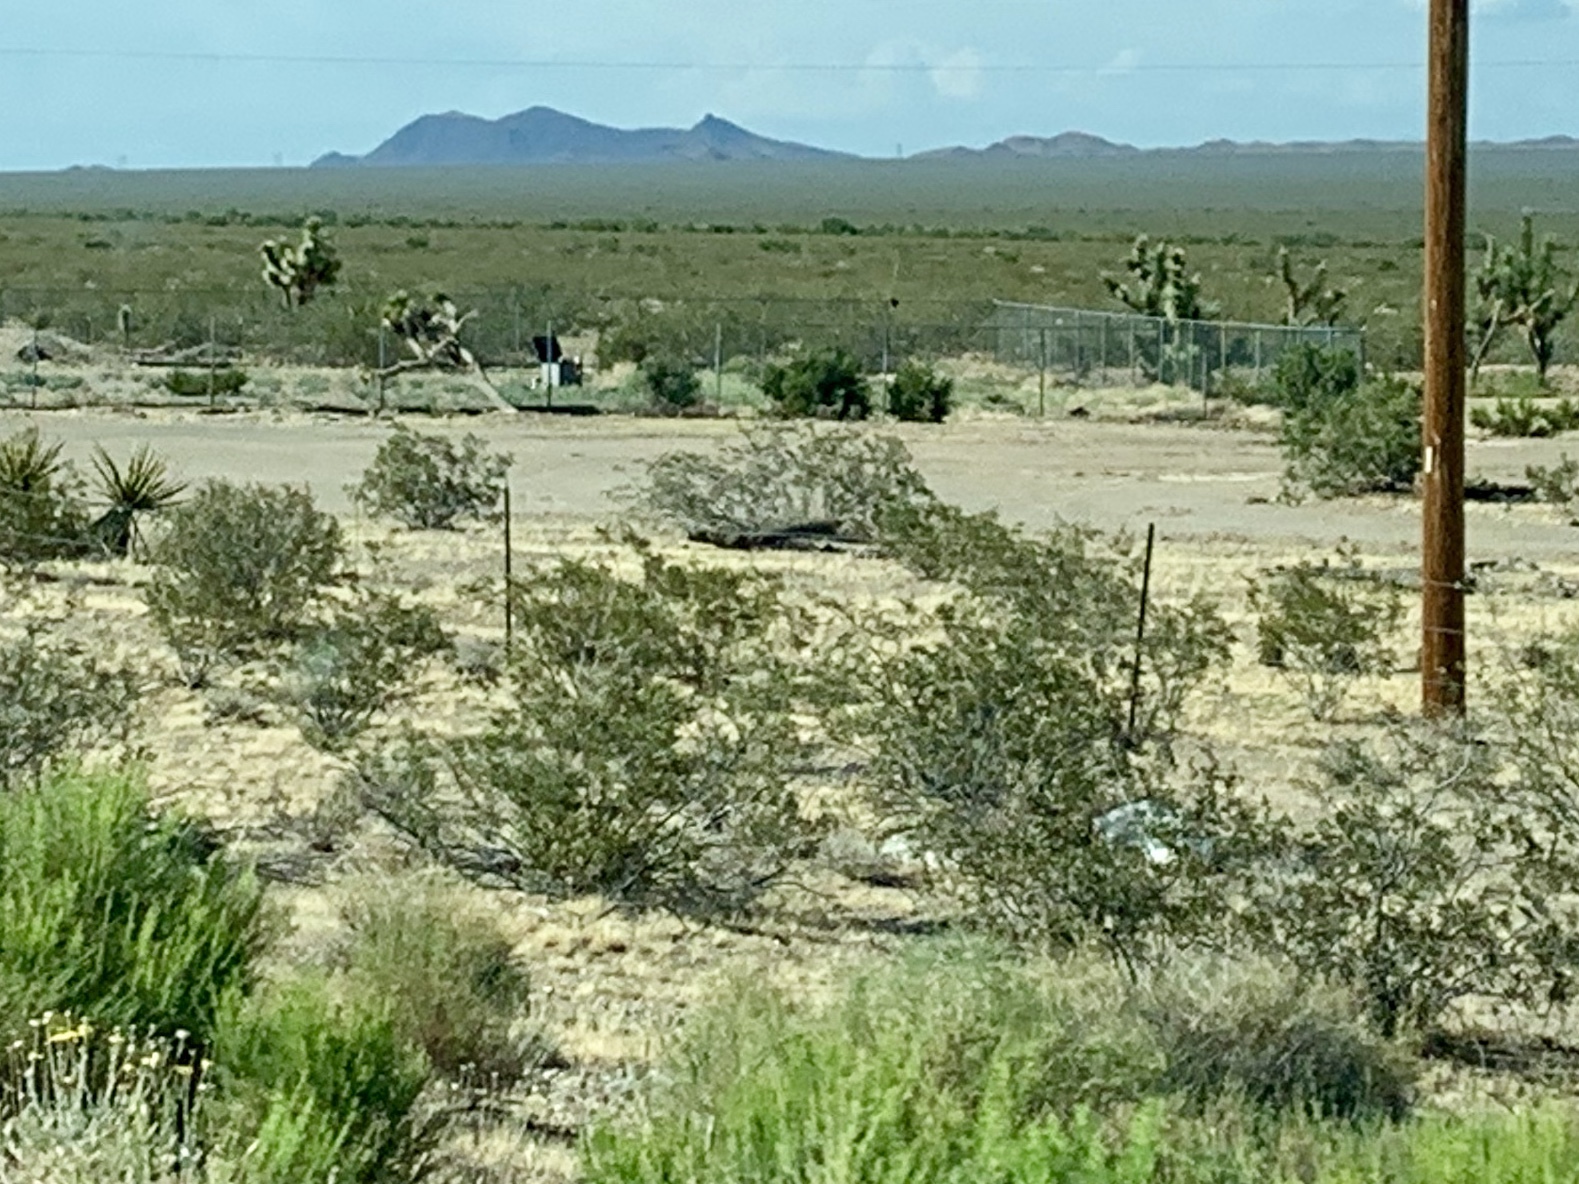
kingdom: Plantae
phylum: Tracheophyta
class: Magnoliopsida
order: Zygophyllales
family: Zygophyllaceae
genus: Larrea
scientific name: Larrea tridentata
